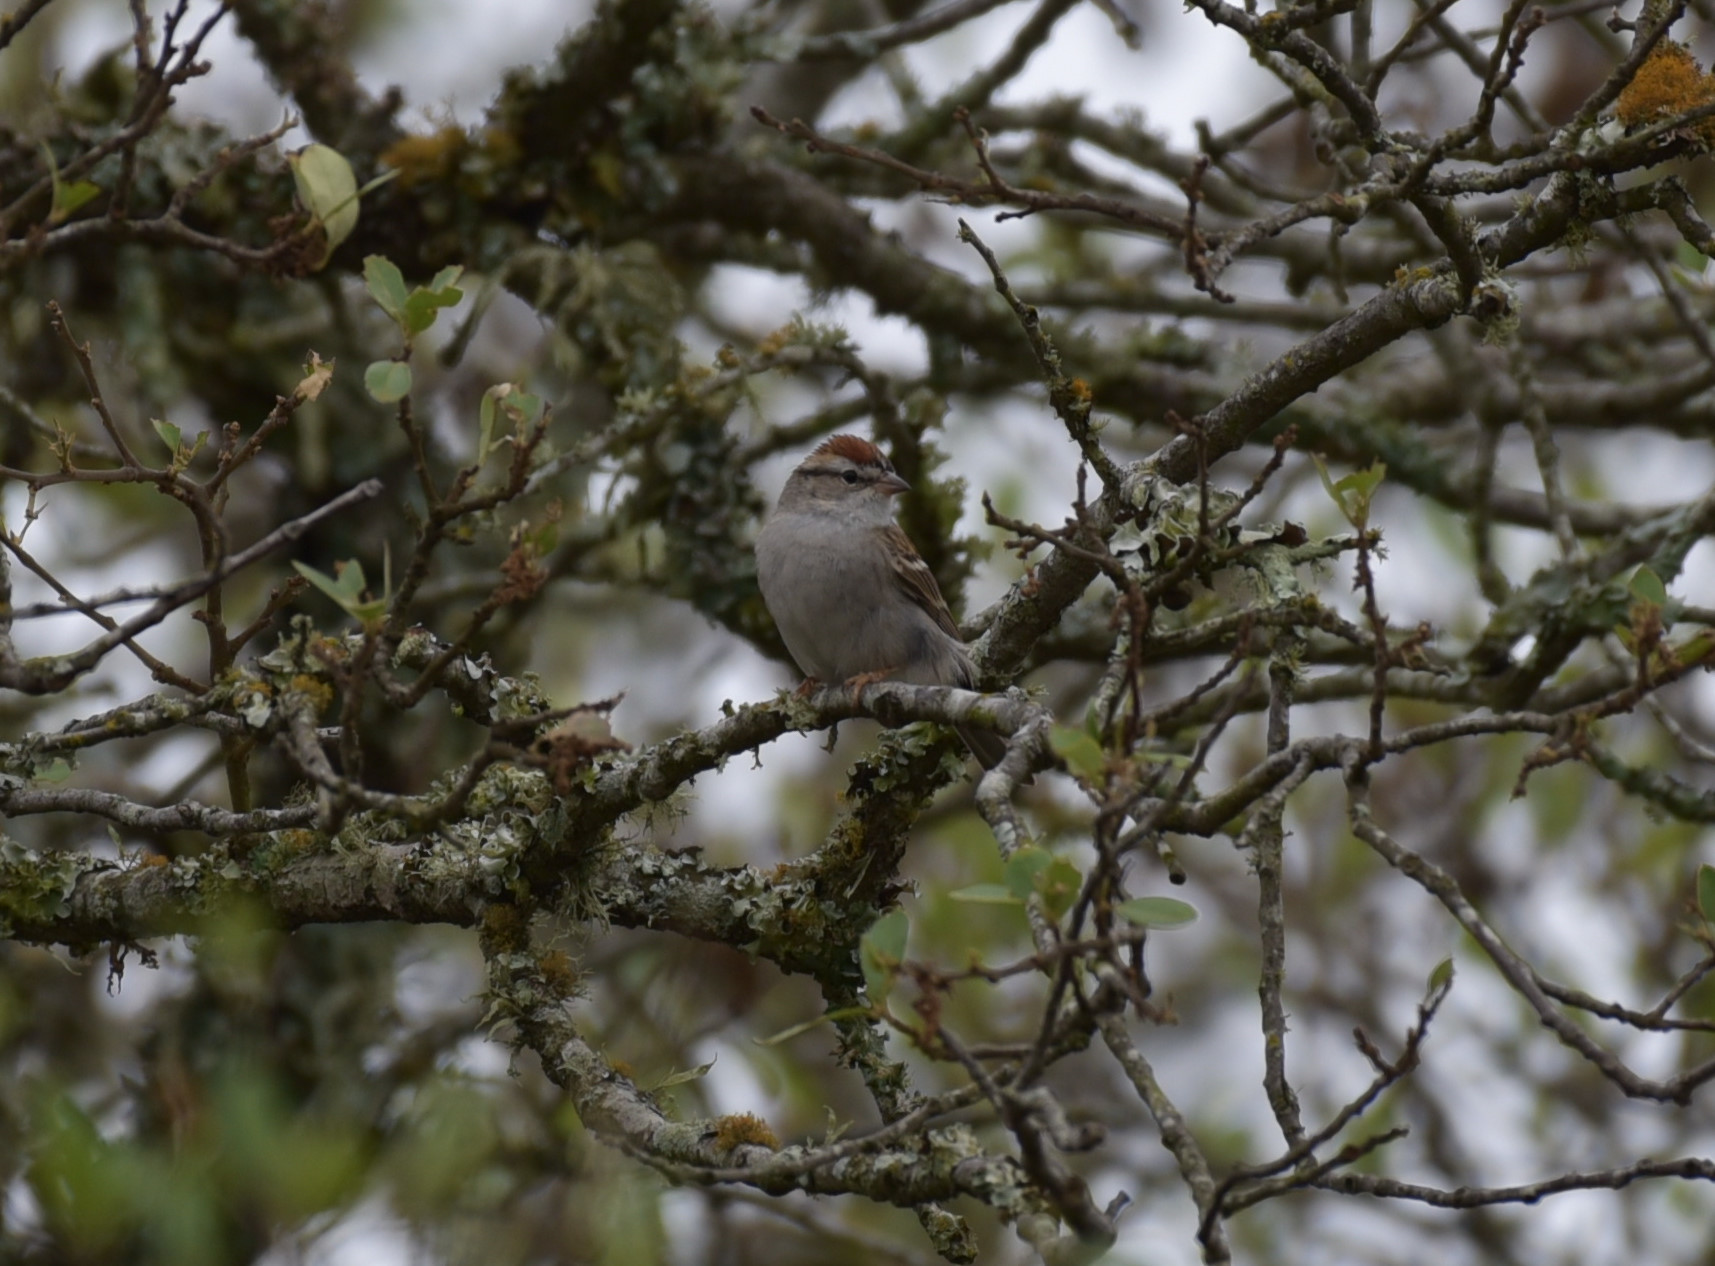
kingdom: Animalia
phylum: Chordata
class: Aves
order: Passeriformes
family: Passerellidae
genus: Spizella
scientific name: Spizella passerina
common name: Chipping sparrow
